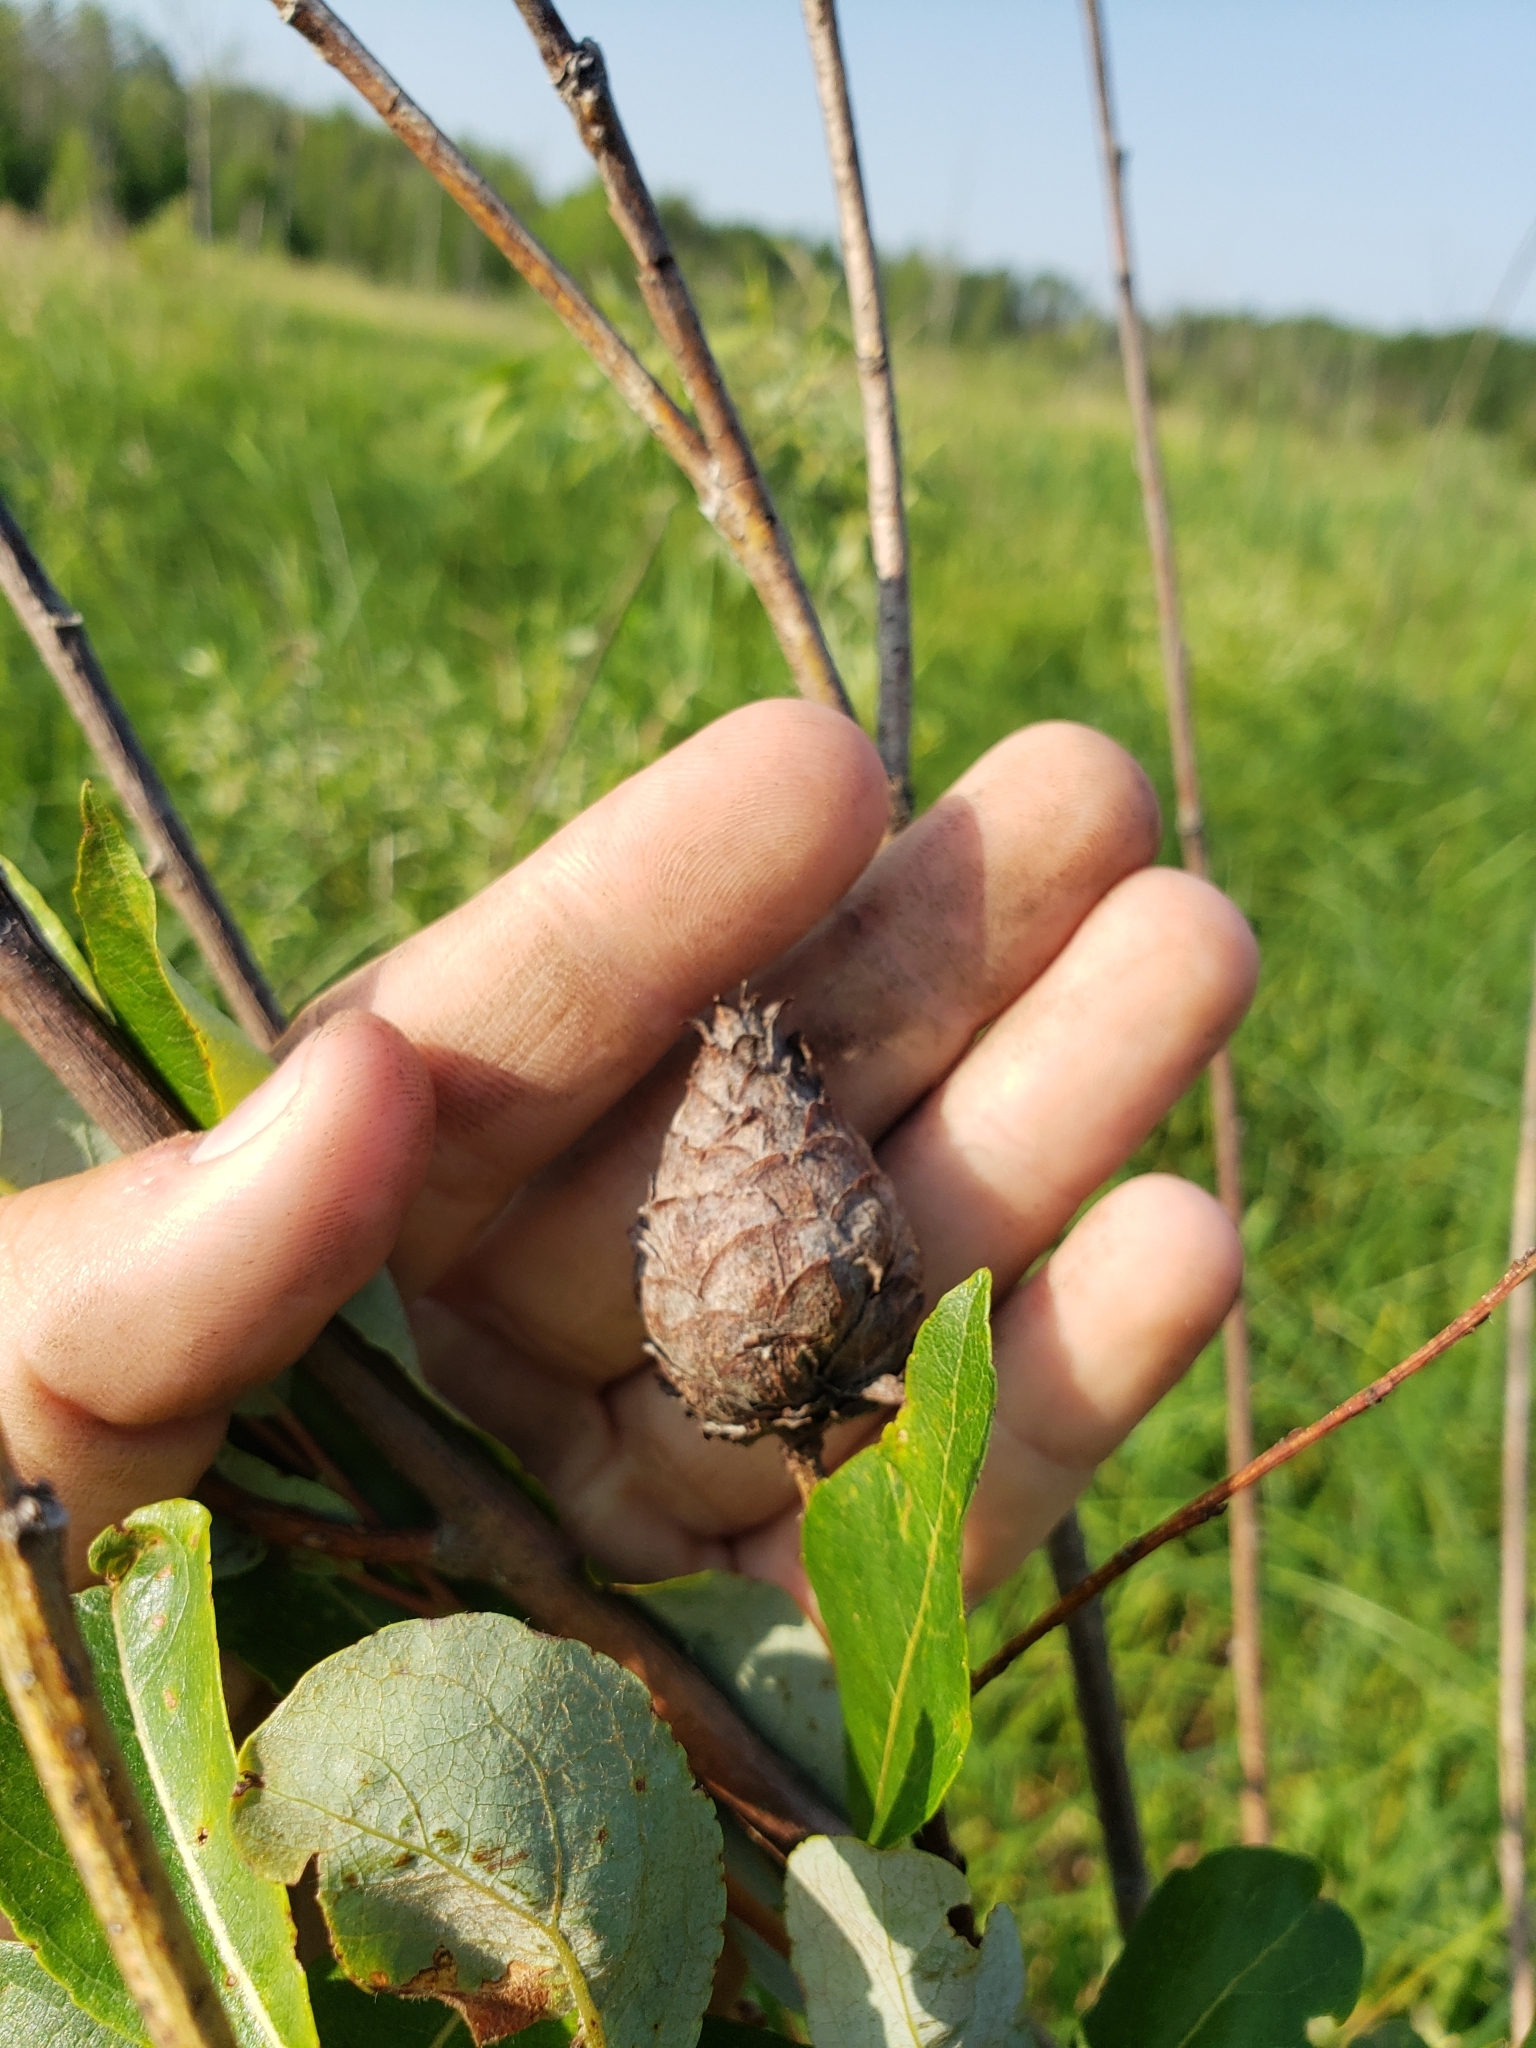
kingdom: Animalia
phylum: Arthropoda
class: Insecta
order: Diptera
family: Cecidomyiidae
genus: Rabdophaga
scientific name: Rabdophaga strobiloides
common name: Willow pinecone gall midge
